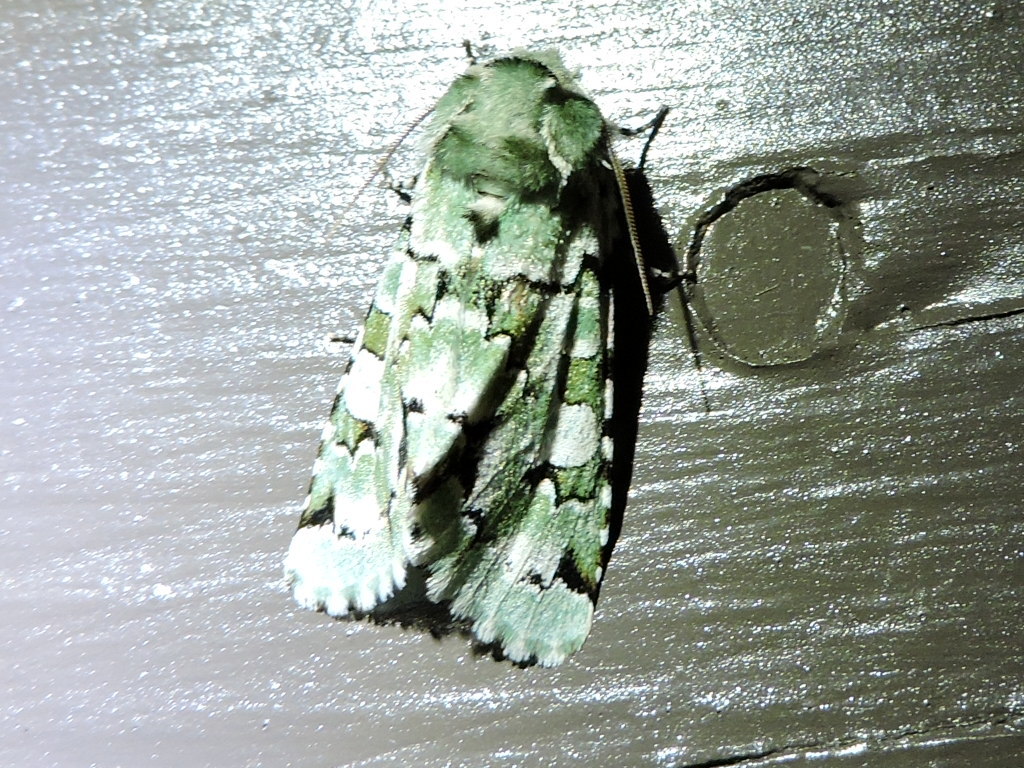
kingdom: Animalia
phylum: Arthropoda
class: Insecta
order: Lepidoptera
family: Noctuidae
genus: Miracavira
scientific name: Miracavira brillians
